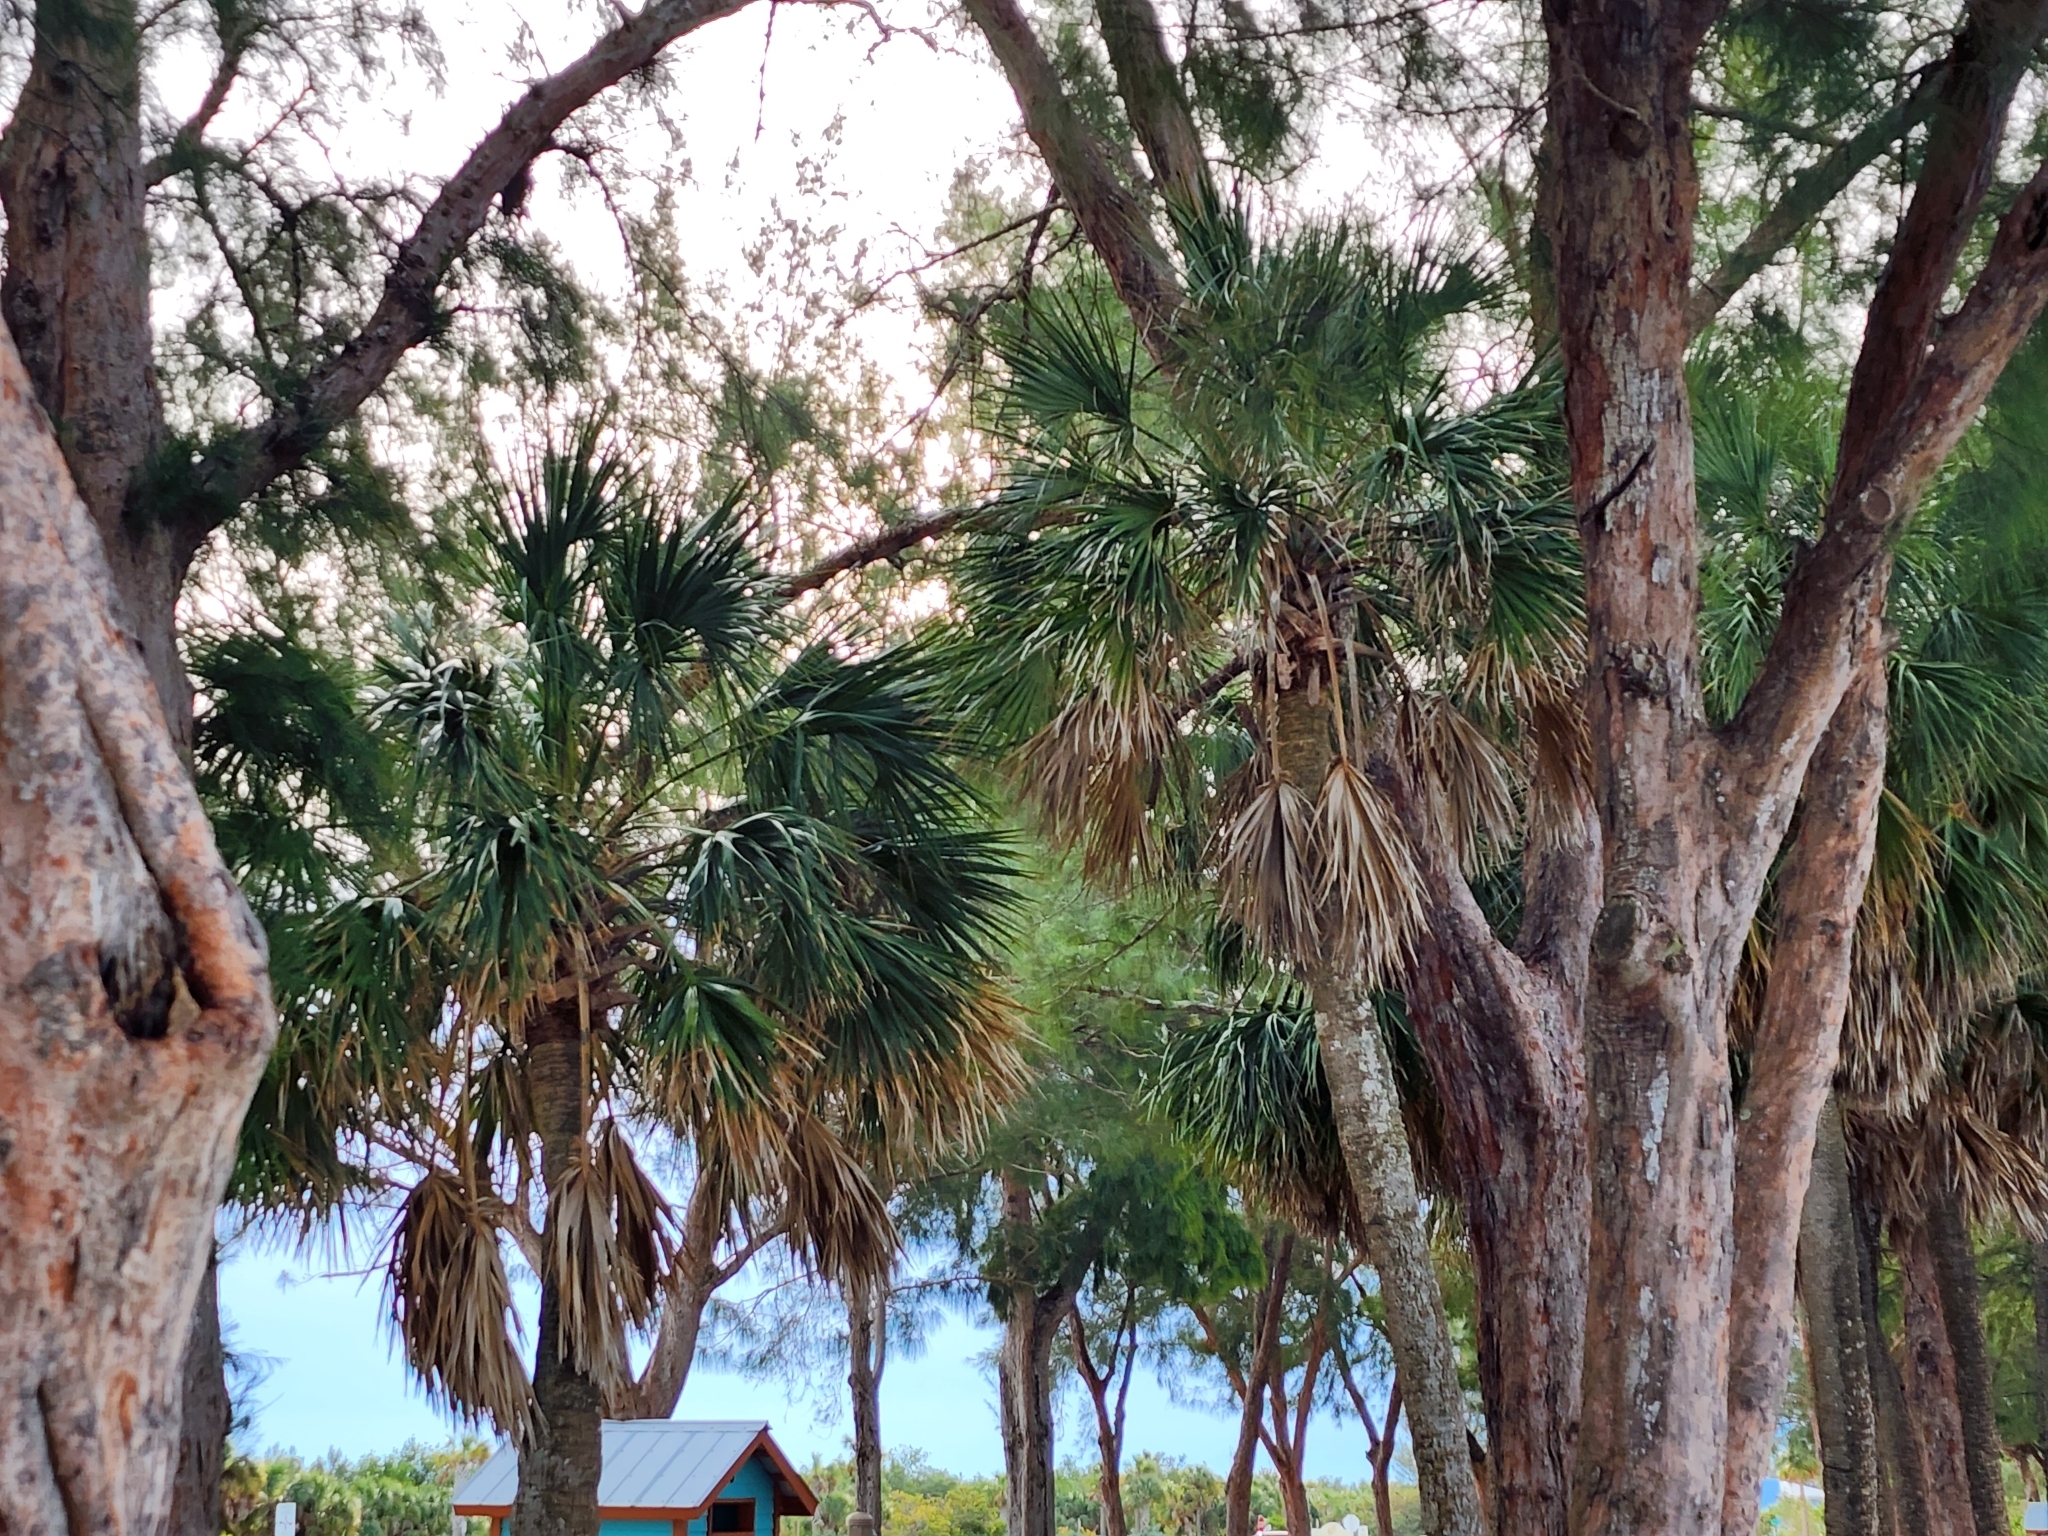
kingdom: Plantae
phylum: Tracheophyta
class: Liliopsida
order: Arecales
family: Arecaceae
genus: Sabal
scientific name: Sabal palmetto
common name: Blue palmetto
